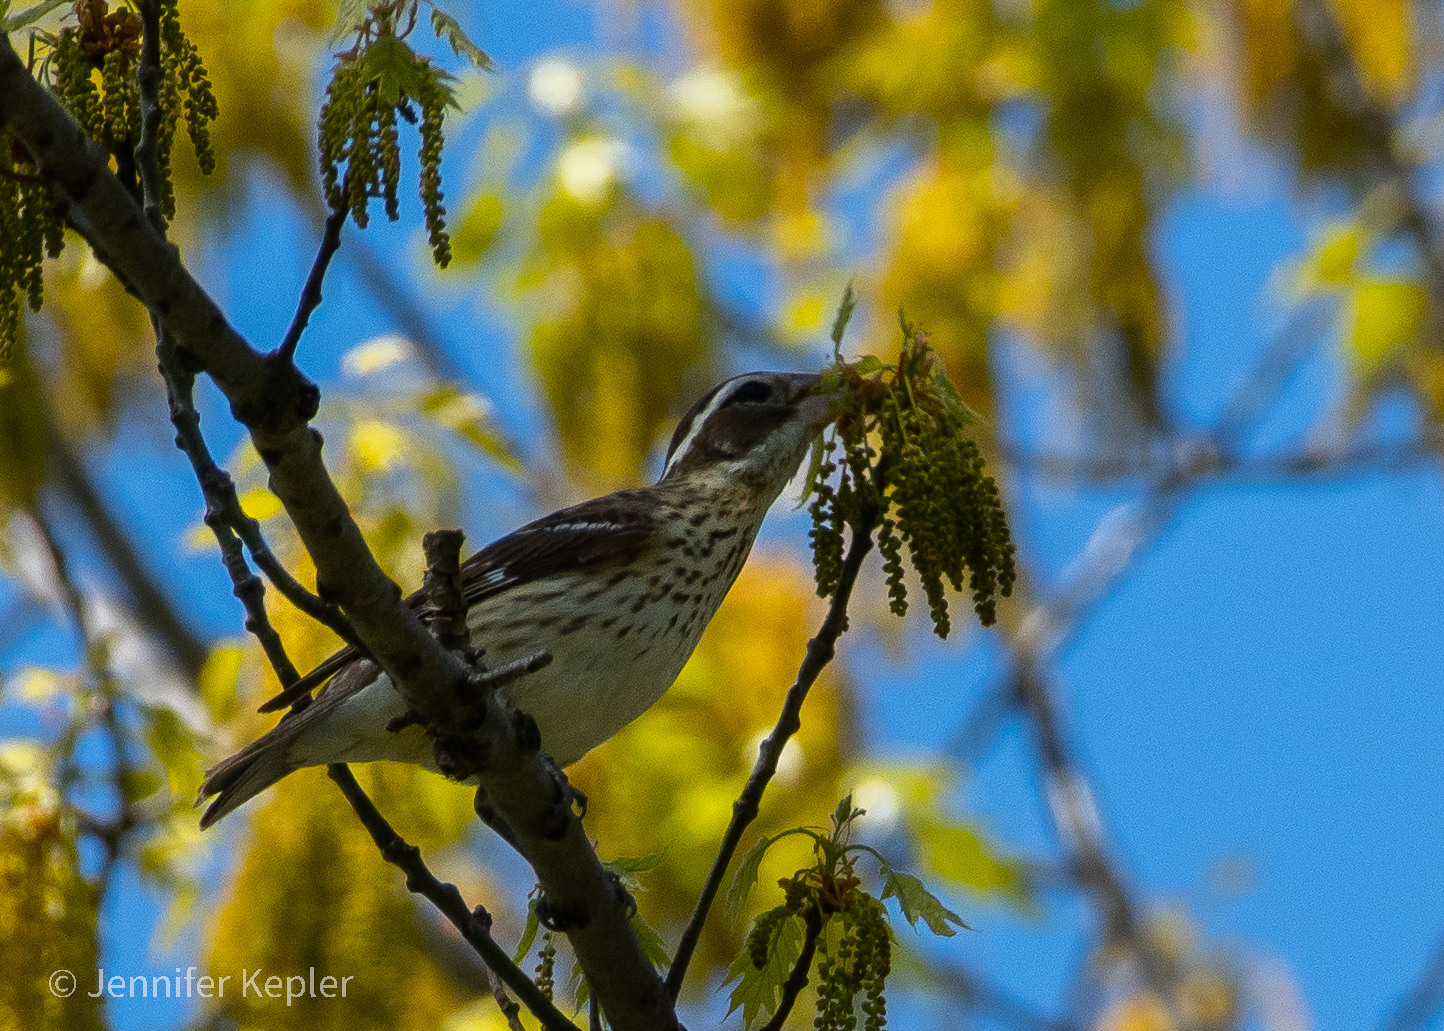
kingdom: Animalia
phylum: Chordata
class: Aves
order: Passeriformes
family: Cardinalidae
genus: Pheucticus
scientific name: Pheucticus ludovicianus
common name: Rose-breasted grosbeak
